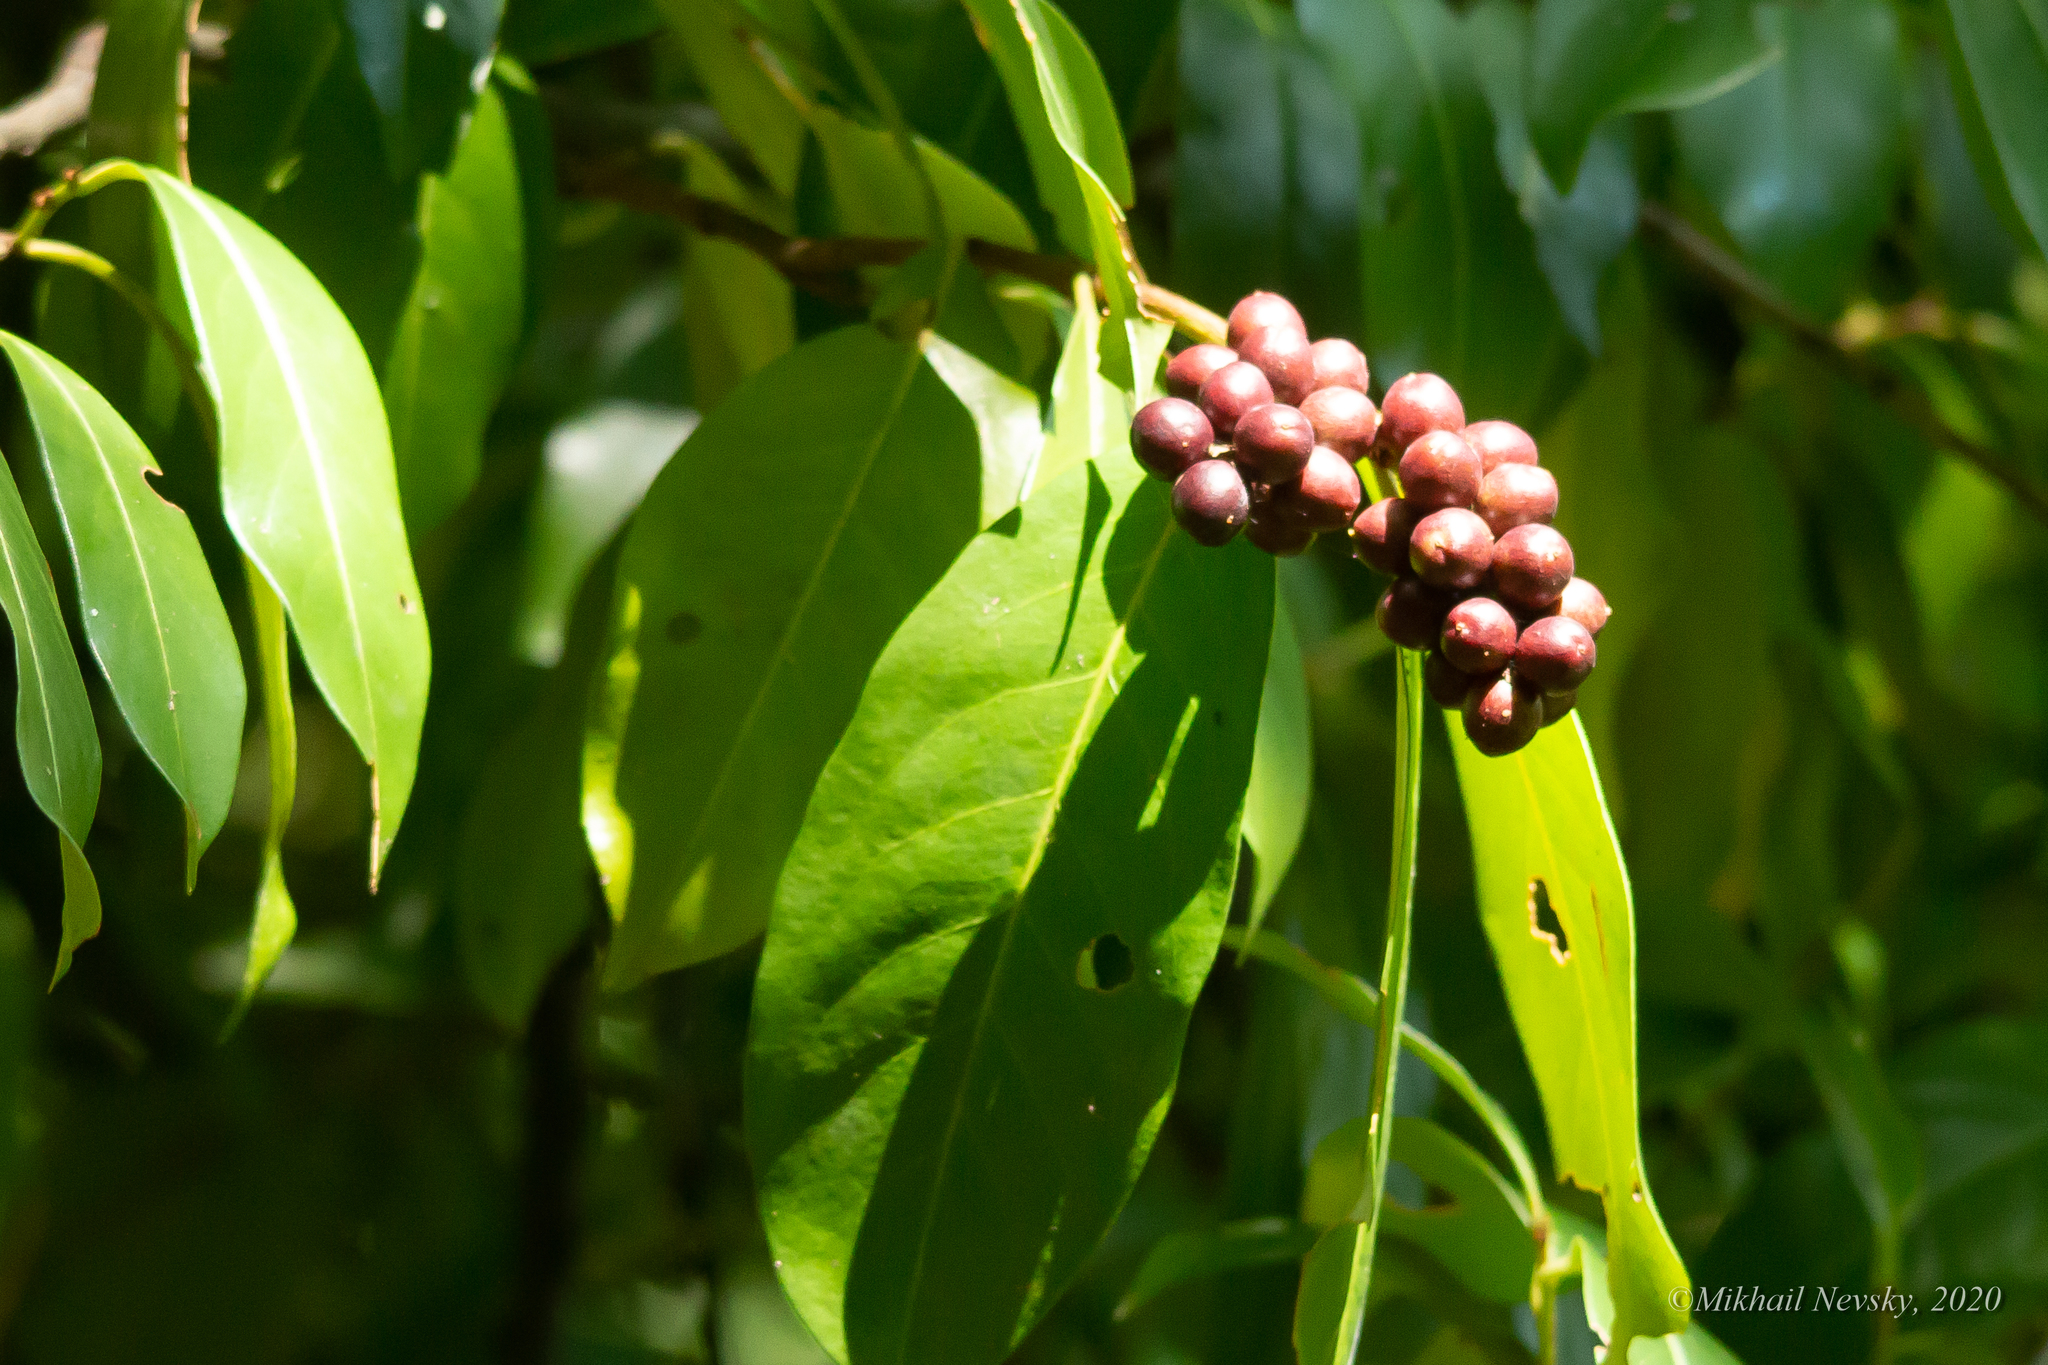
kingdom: Plantae
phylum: Tracheophyta
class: Magnoliopsida
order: Rosales
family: Rosaceae
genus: Prunus
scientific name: Prunus laurocerasus
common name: Cherry laurel
